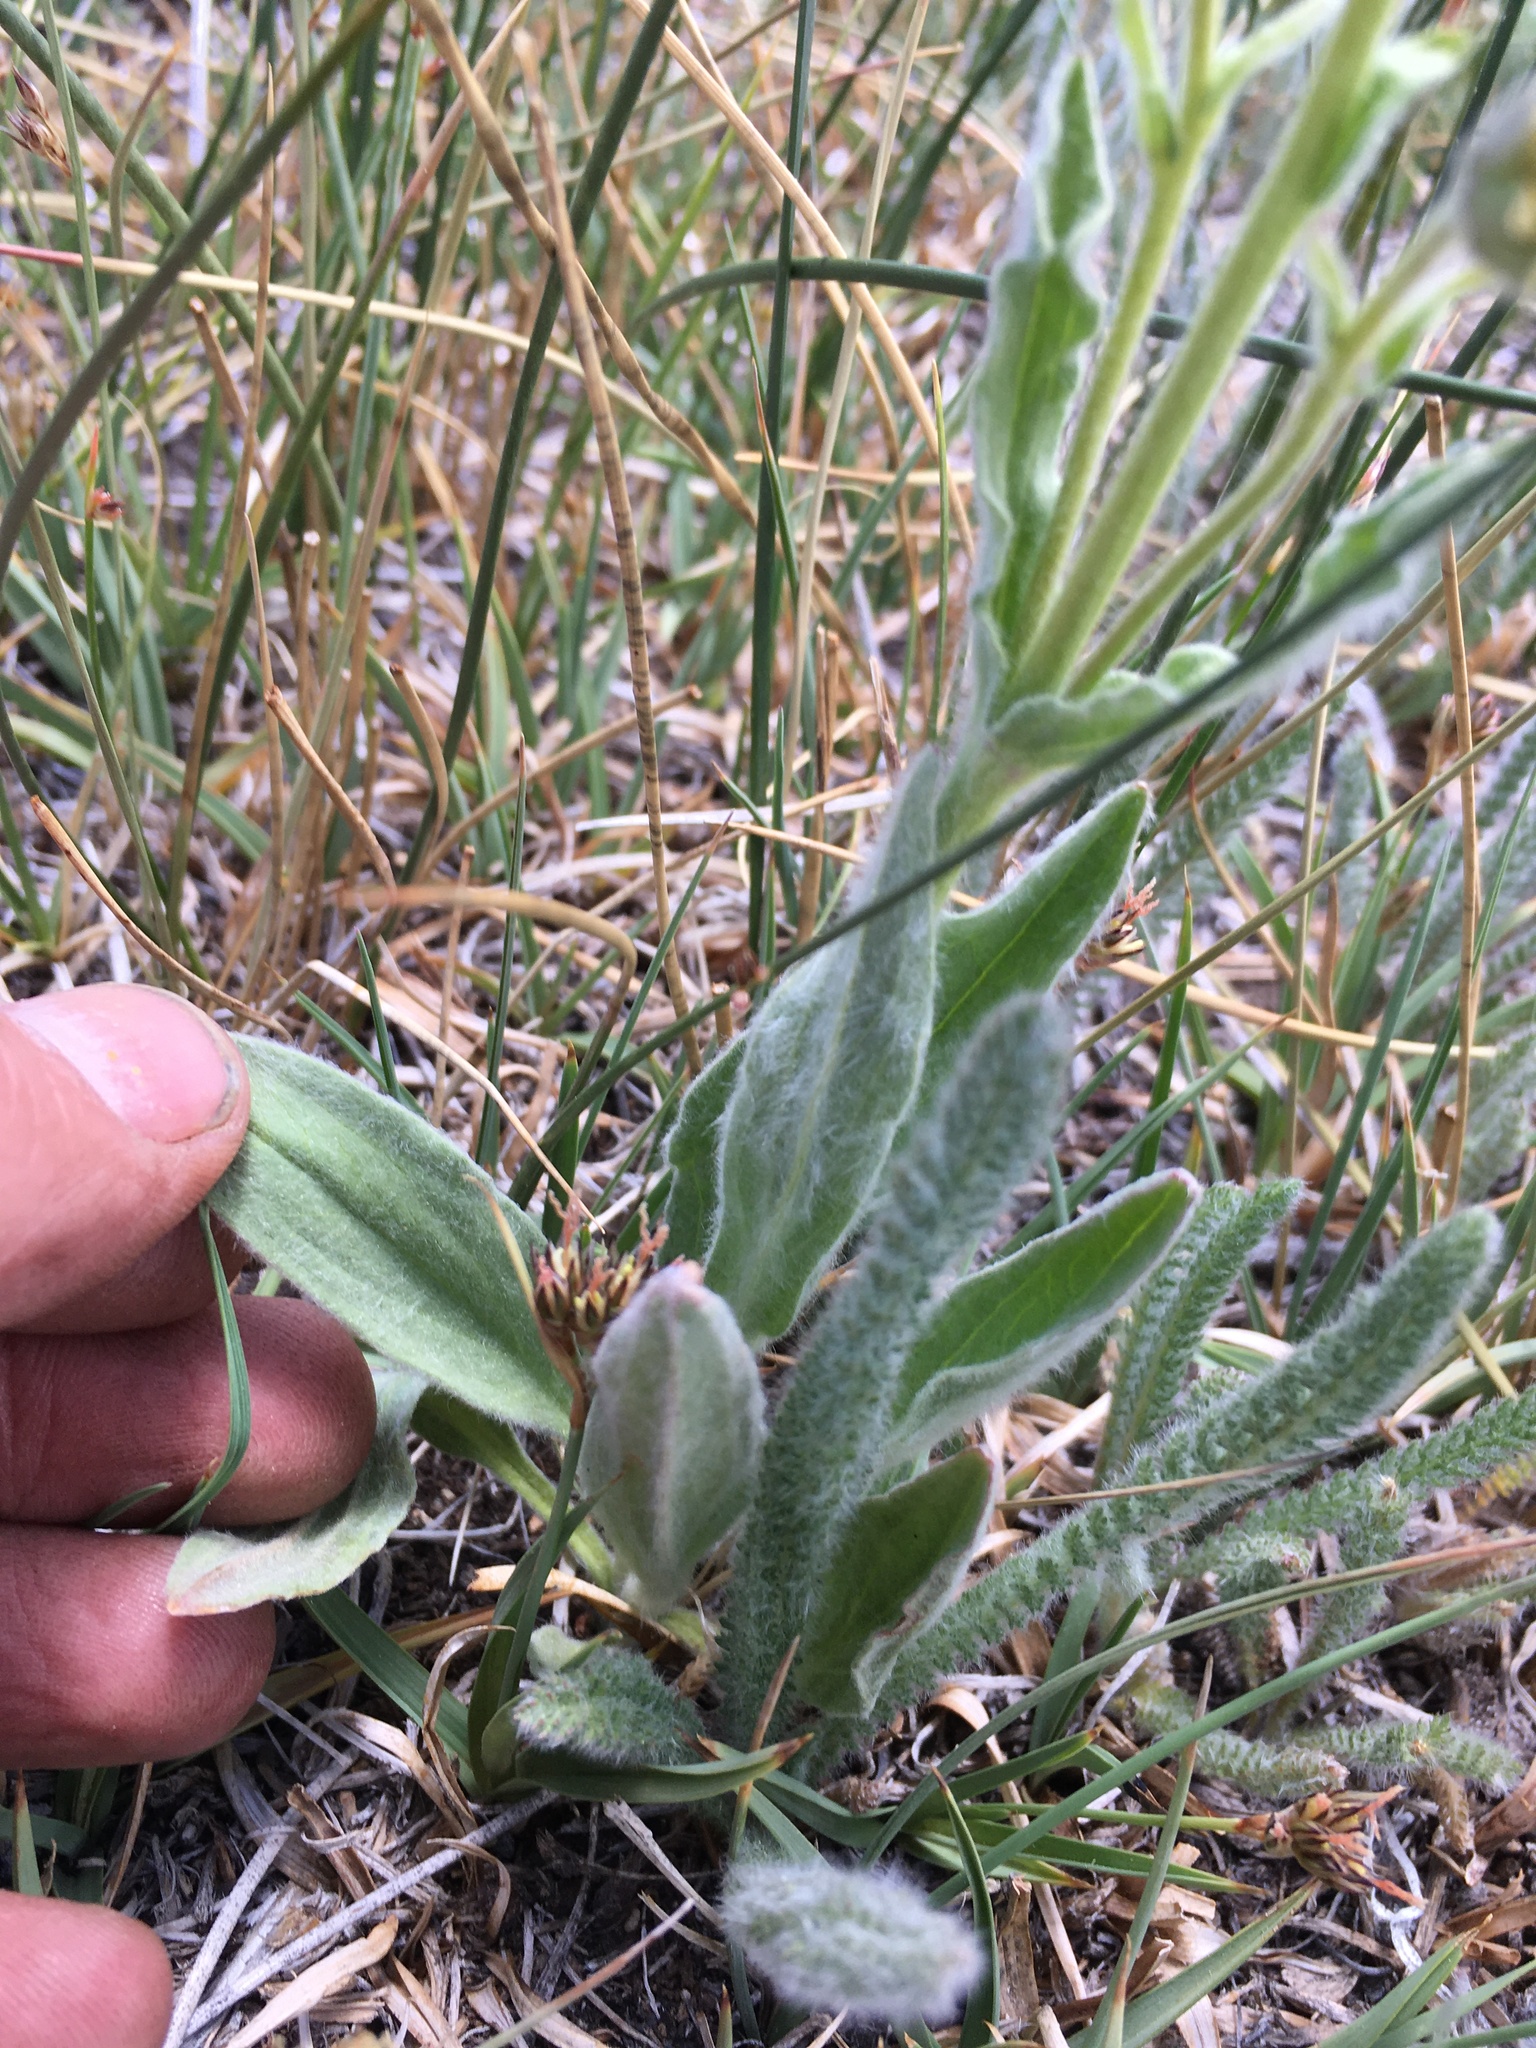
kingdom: Plantae
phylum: Tracheophyta
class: Magnoliopsida
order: Asterales
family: Asteraceae
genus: Arnica
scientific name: Arnica parryi
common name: Parry's arnica
